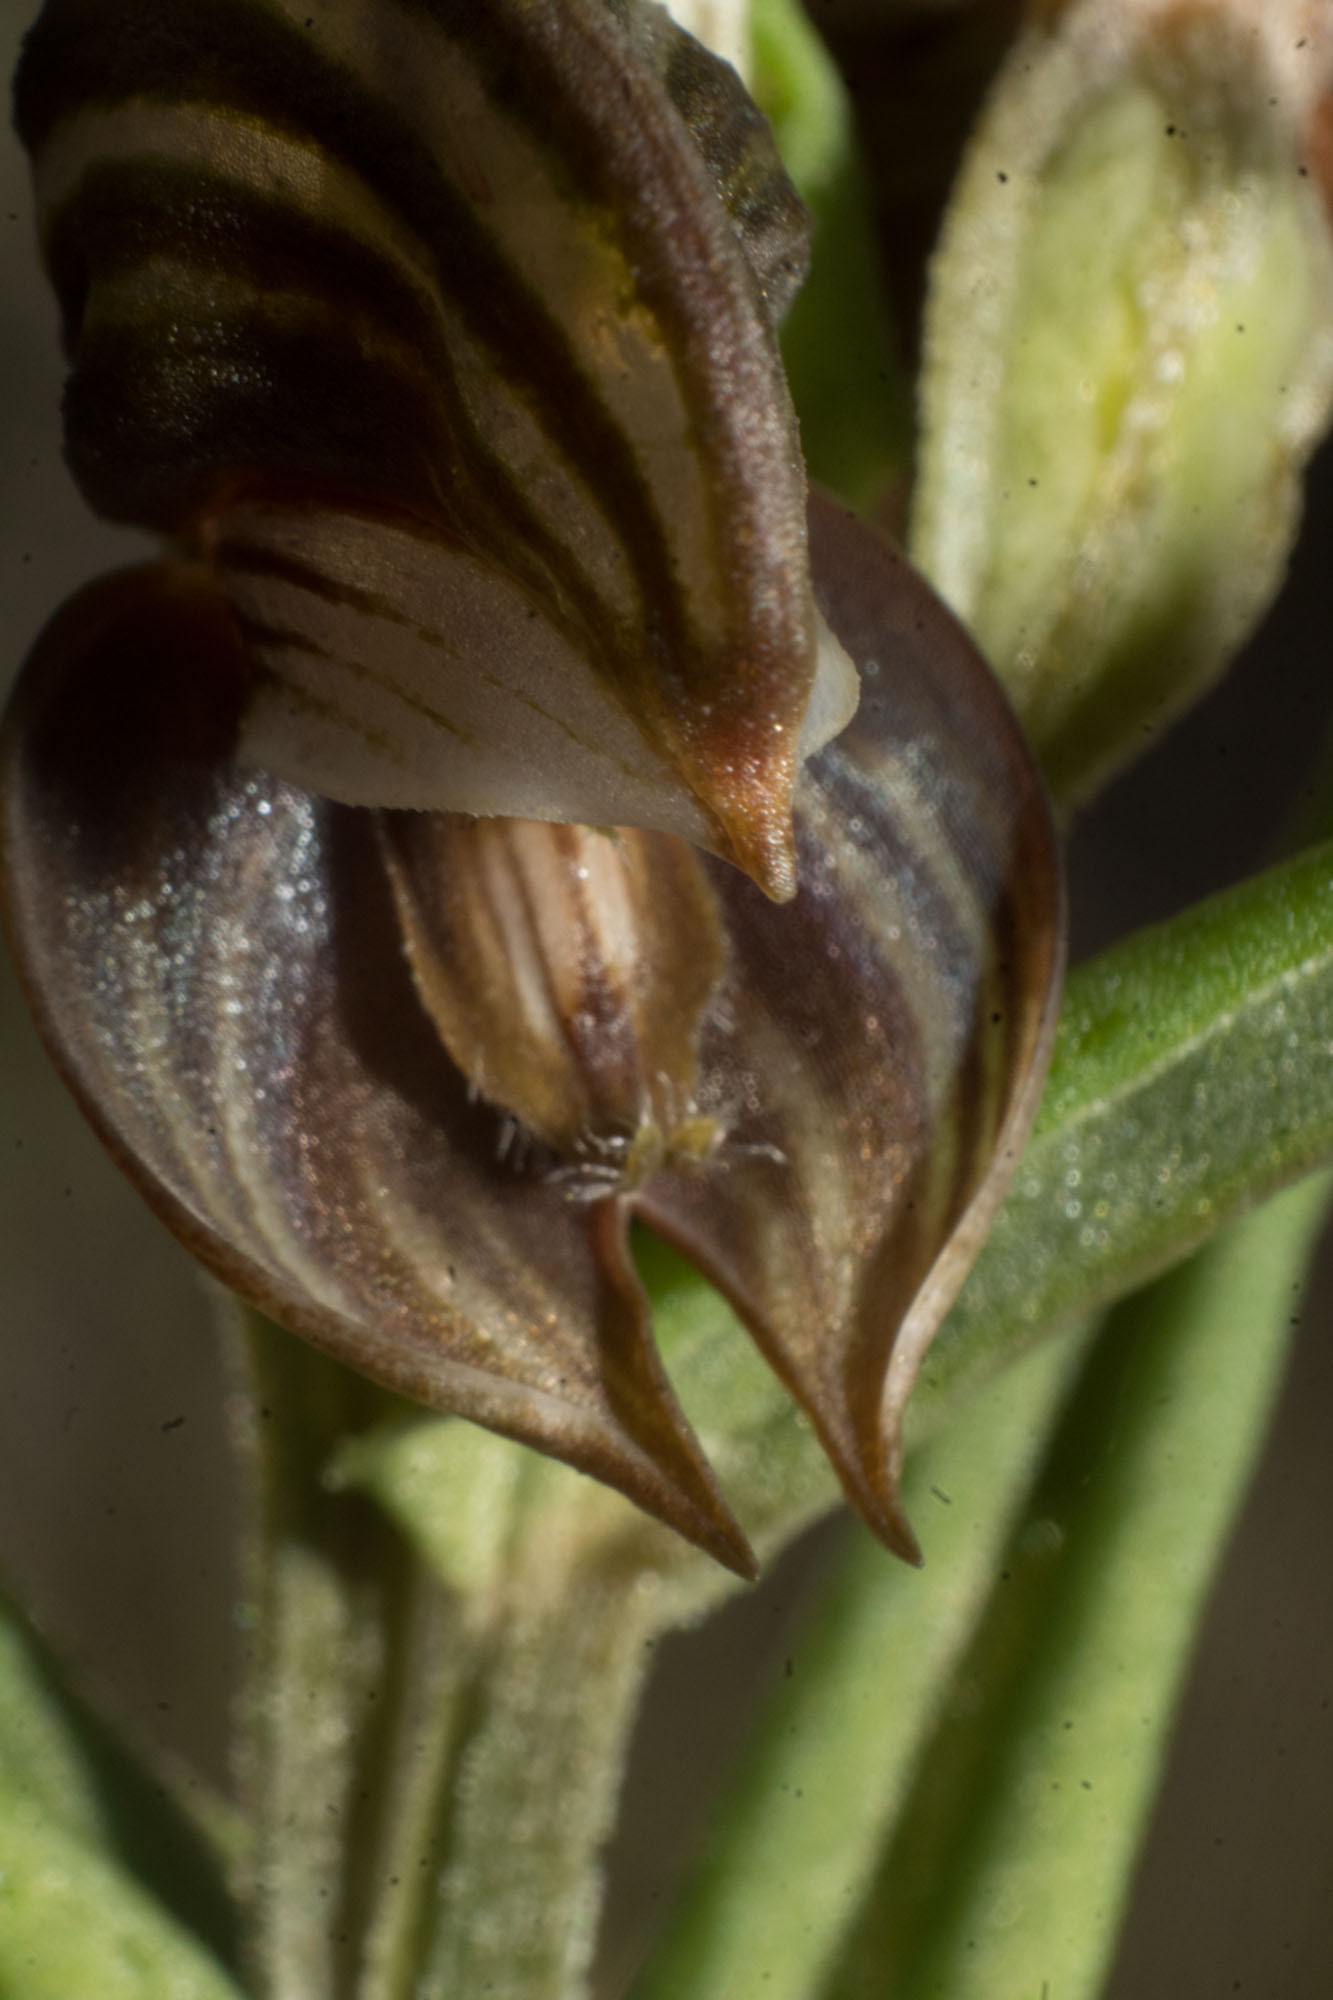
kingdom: Plantae
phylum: Tracheophyta
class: Liliopsida
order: Asparagales
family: Orchidaceae
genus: Pterostylis
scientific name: Pterostylis concava
